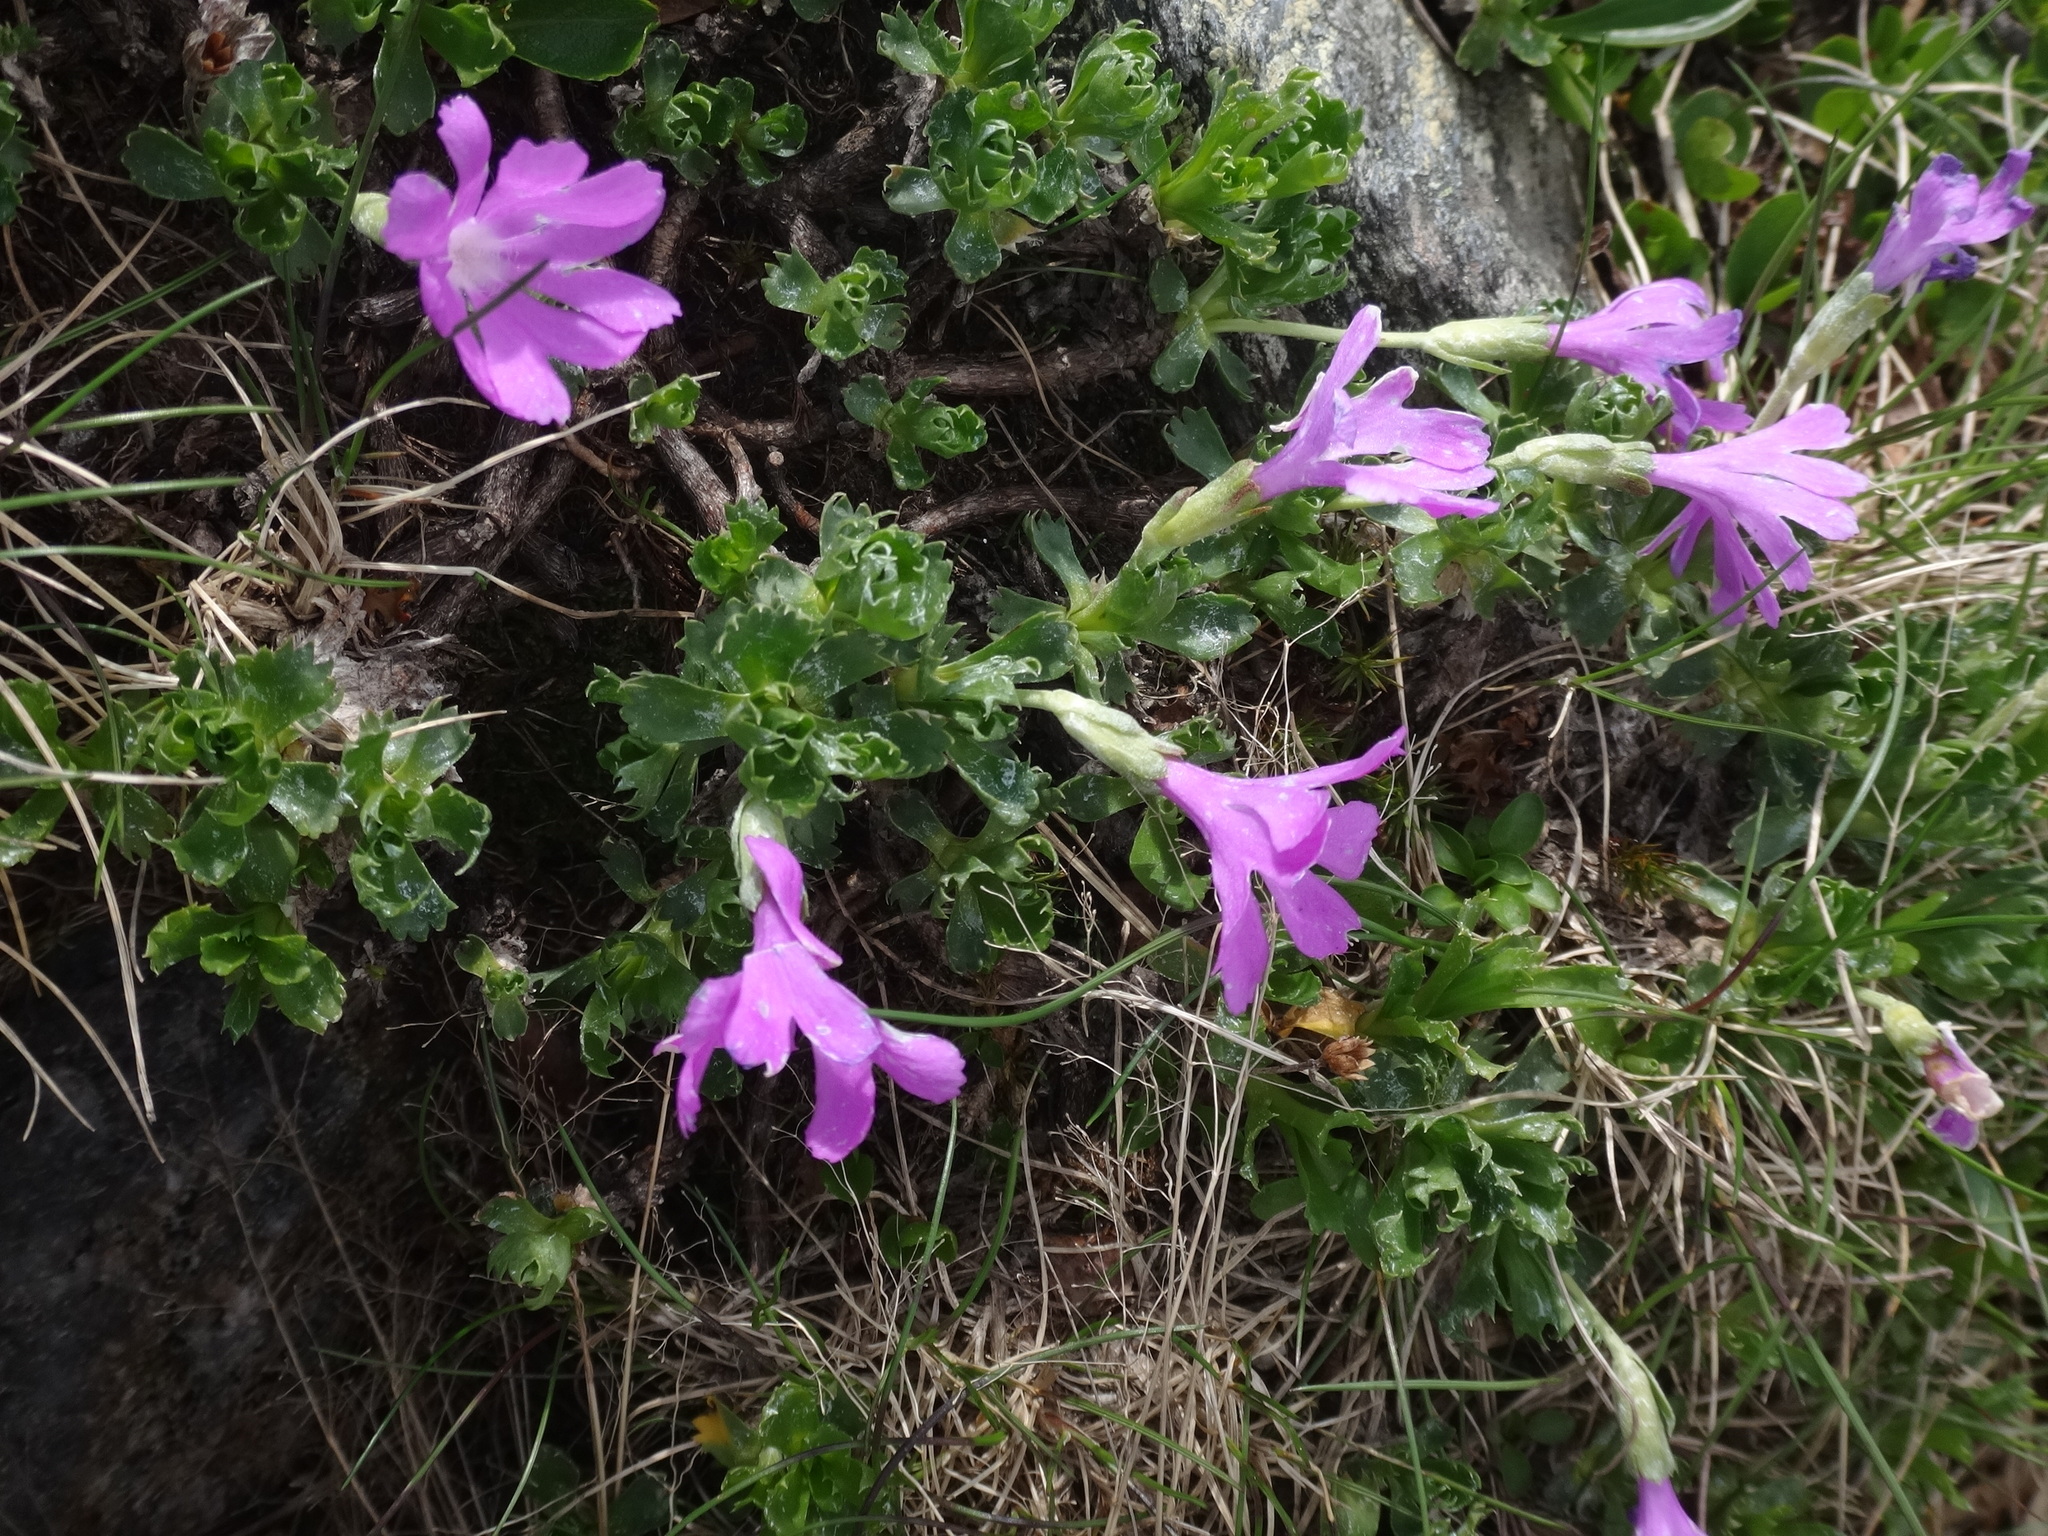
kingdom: Plantae
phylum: Tracheophyta
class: Magnoliopsida
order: Ericales
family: Primulaceae
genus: Primula
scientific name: Primula minima
